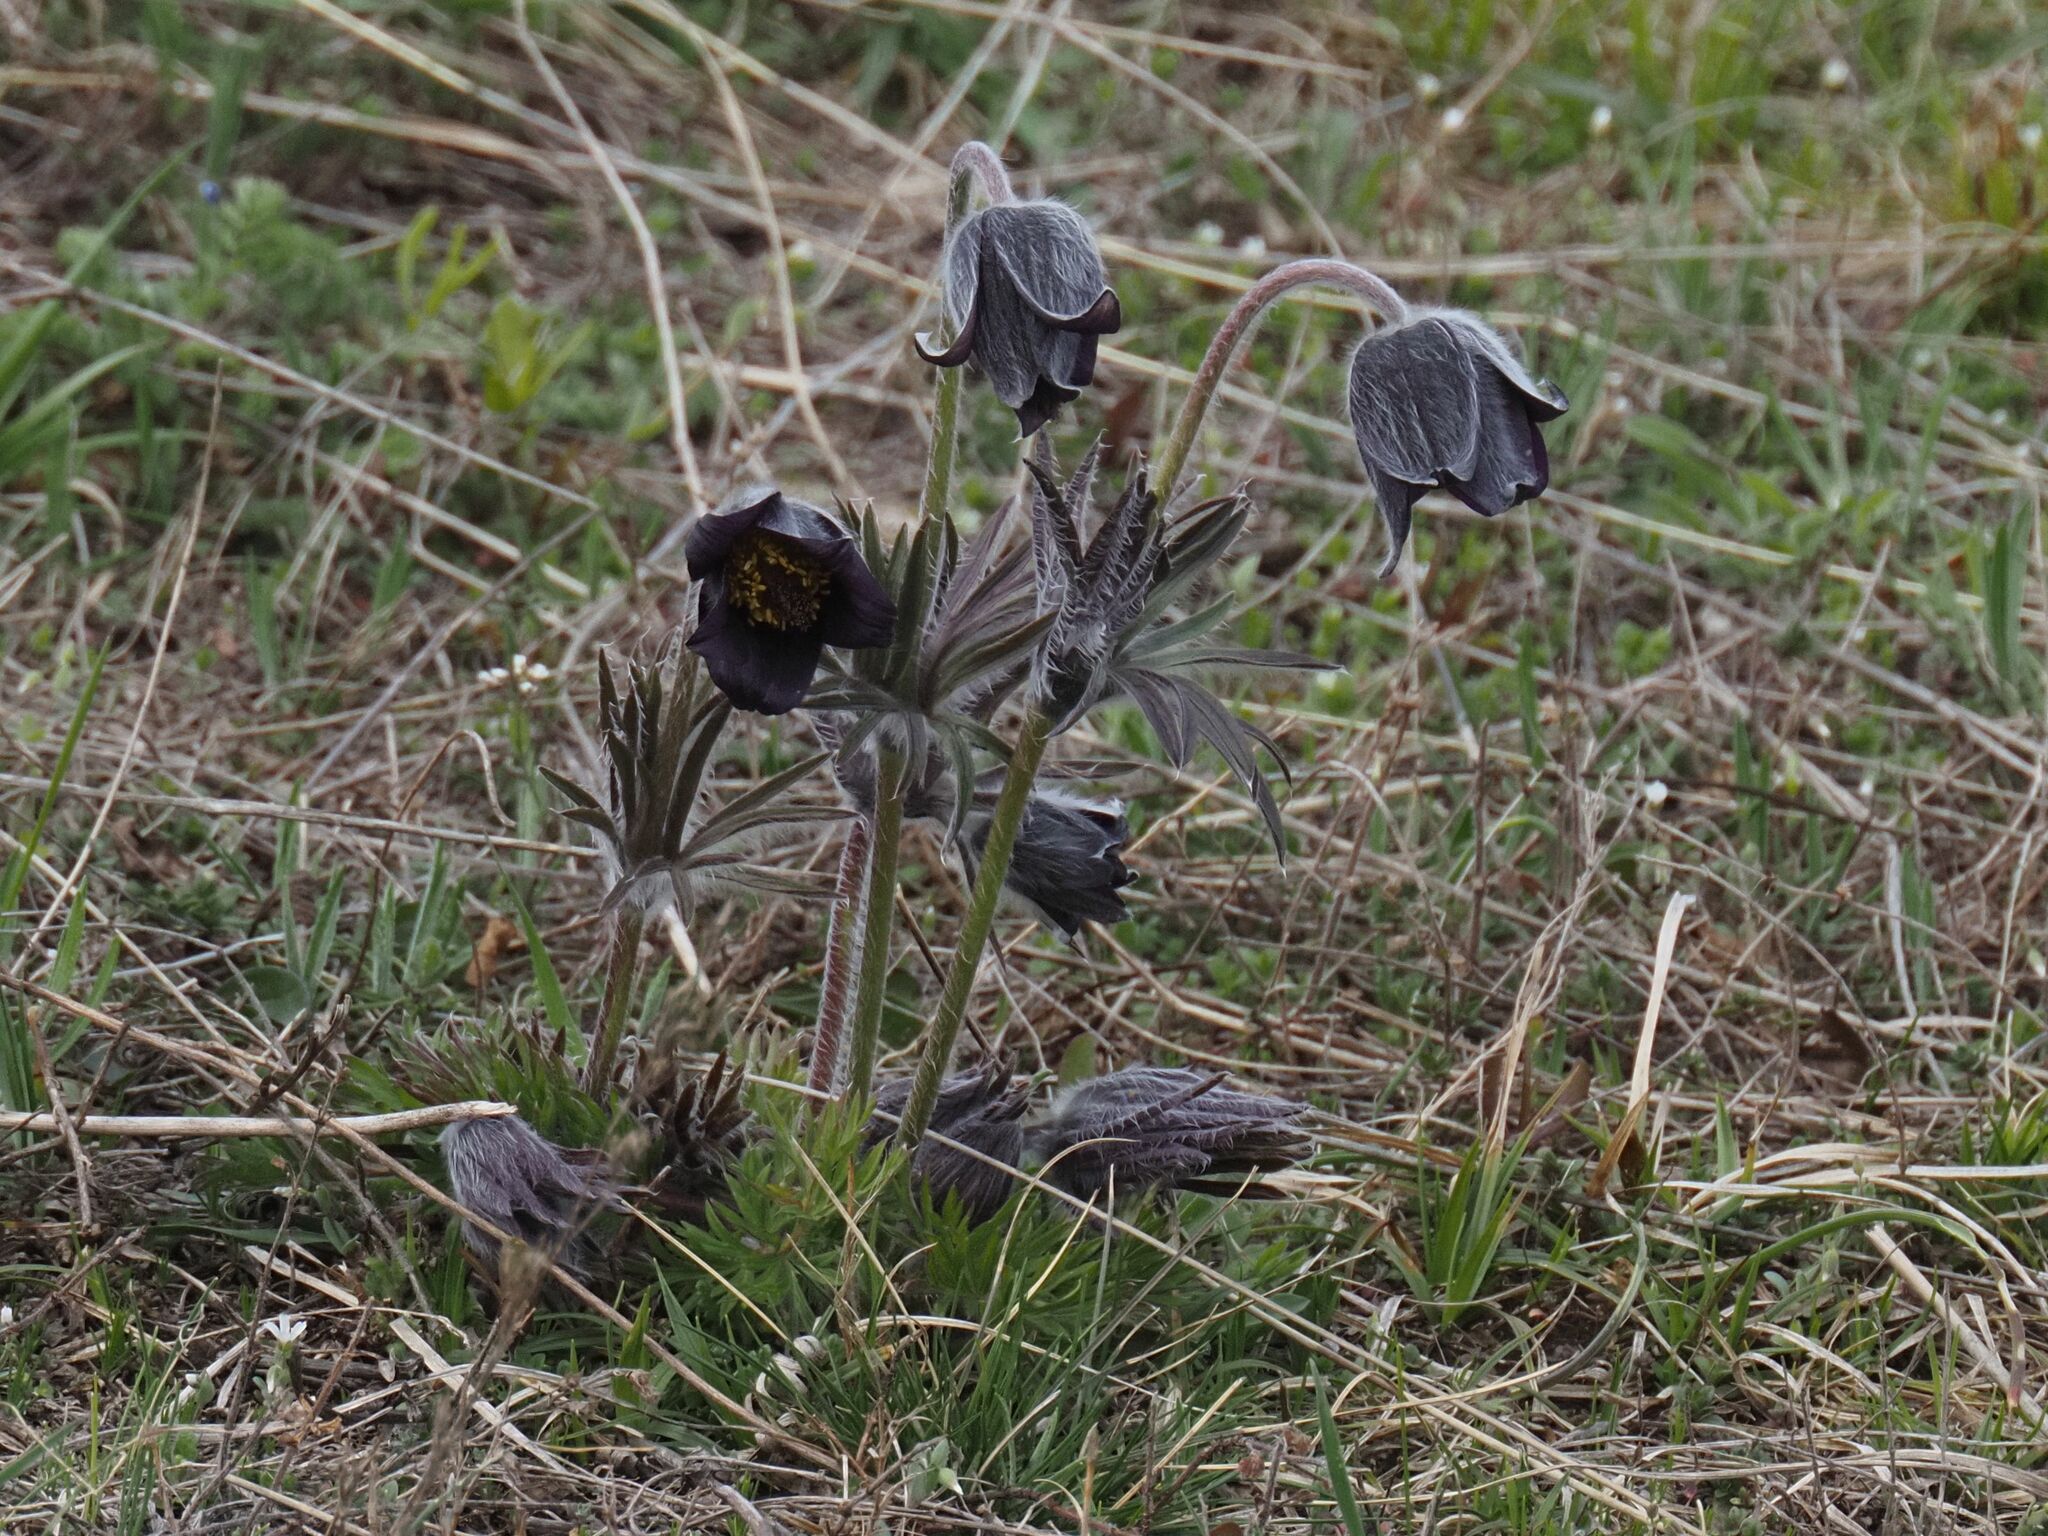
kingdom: Plantae
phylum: Tracheophyta
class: Magnoliopsida
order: Ranunculales
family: Ranunculaceae
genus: Pulsatilla
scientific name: Pulsatilla pratensis
